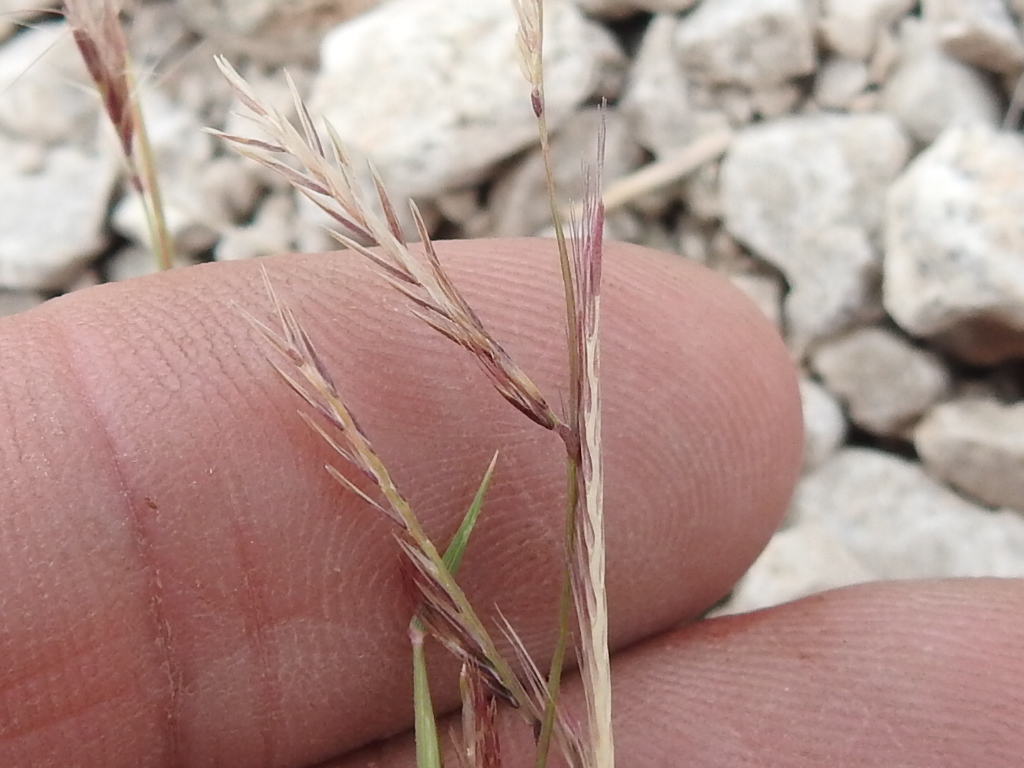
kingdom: Plantae
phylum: Tracheophyta
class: Liliopsida
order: Poales
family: Poaceae
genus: Bouteloua
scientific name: Bouteloua trifida
